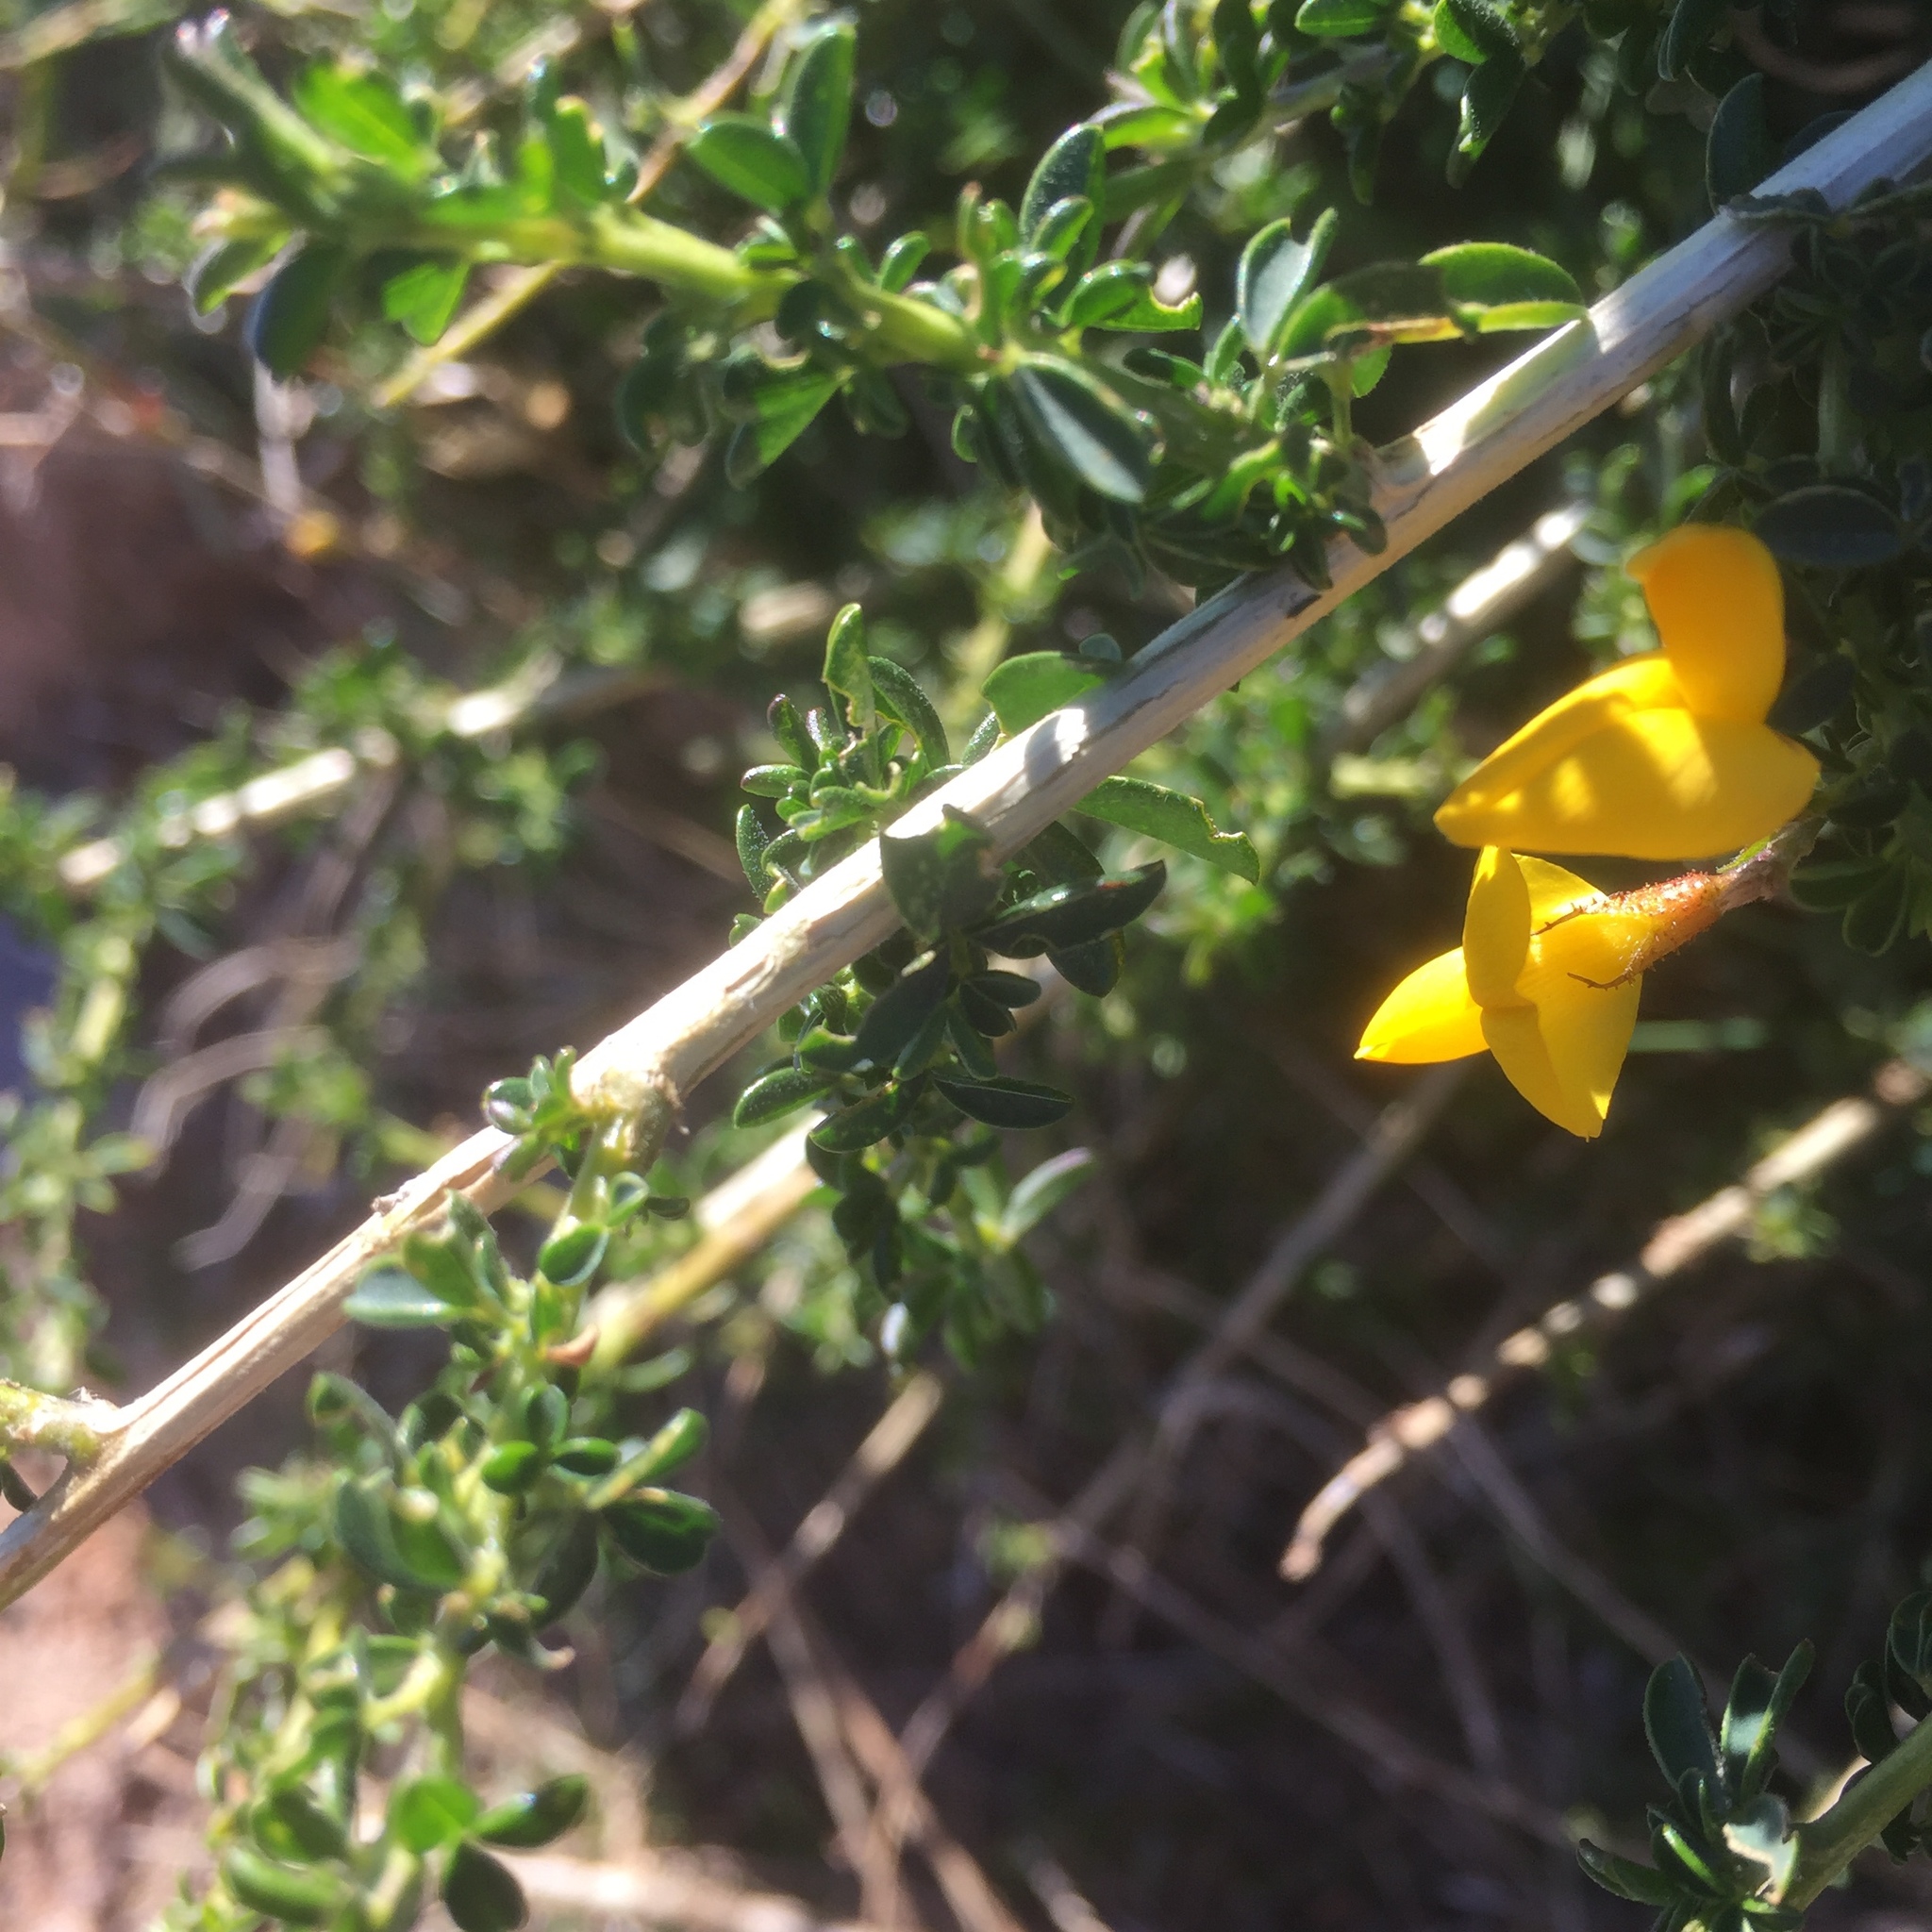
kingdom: Plantae
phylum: Tracheophyta
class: Magnoliopsida
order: Fabales
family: Fabaceae
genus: Cytisus
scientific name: Cytisus scoparius
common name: Scotch broom
